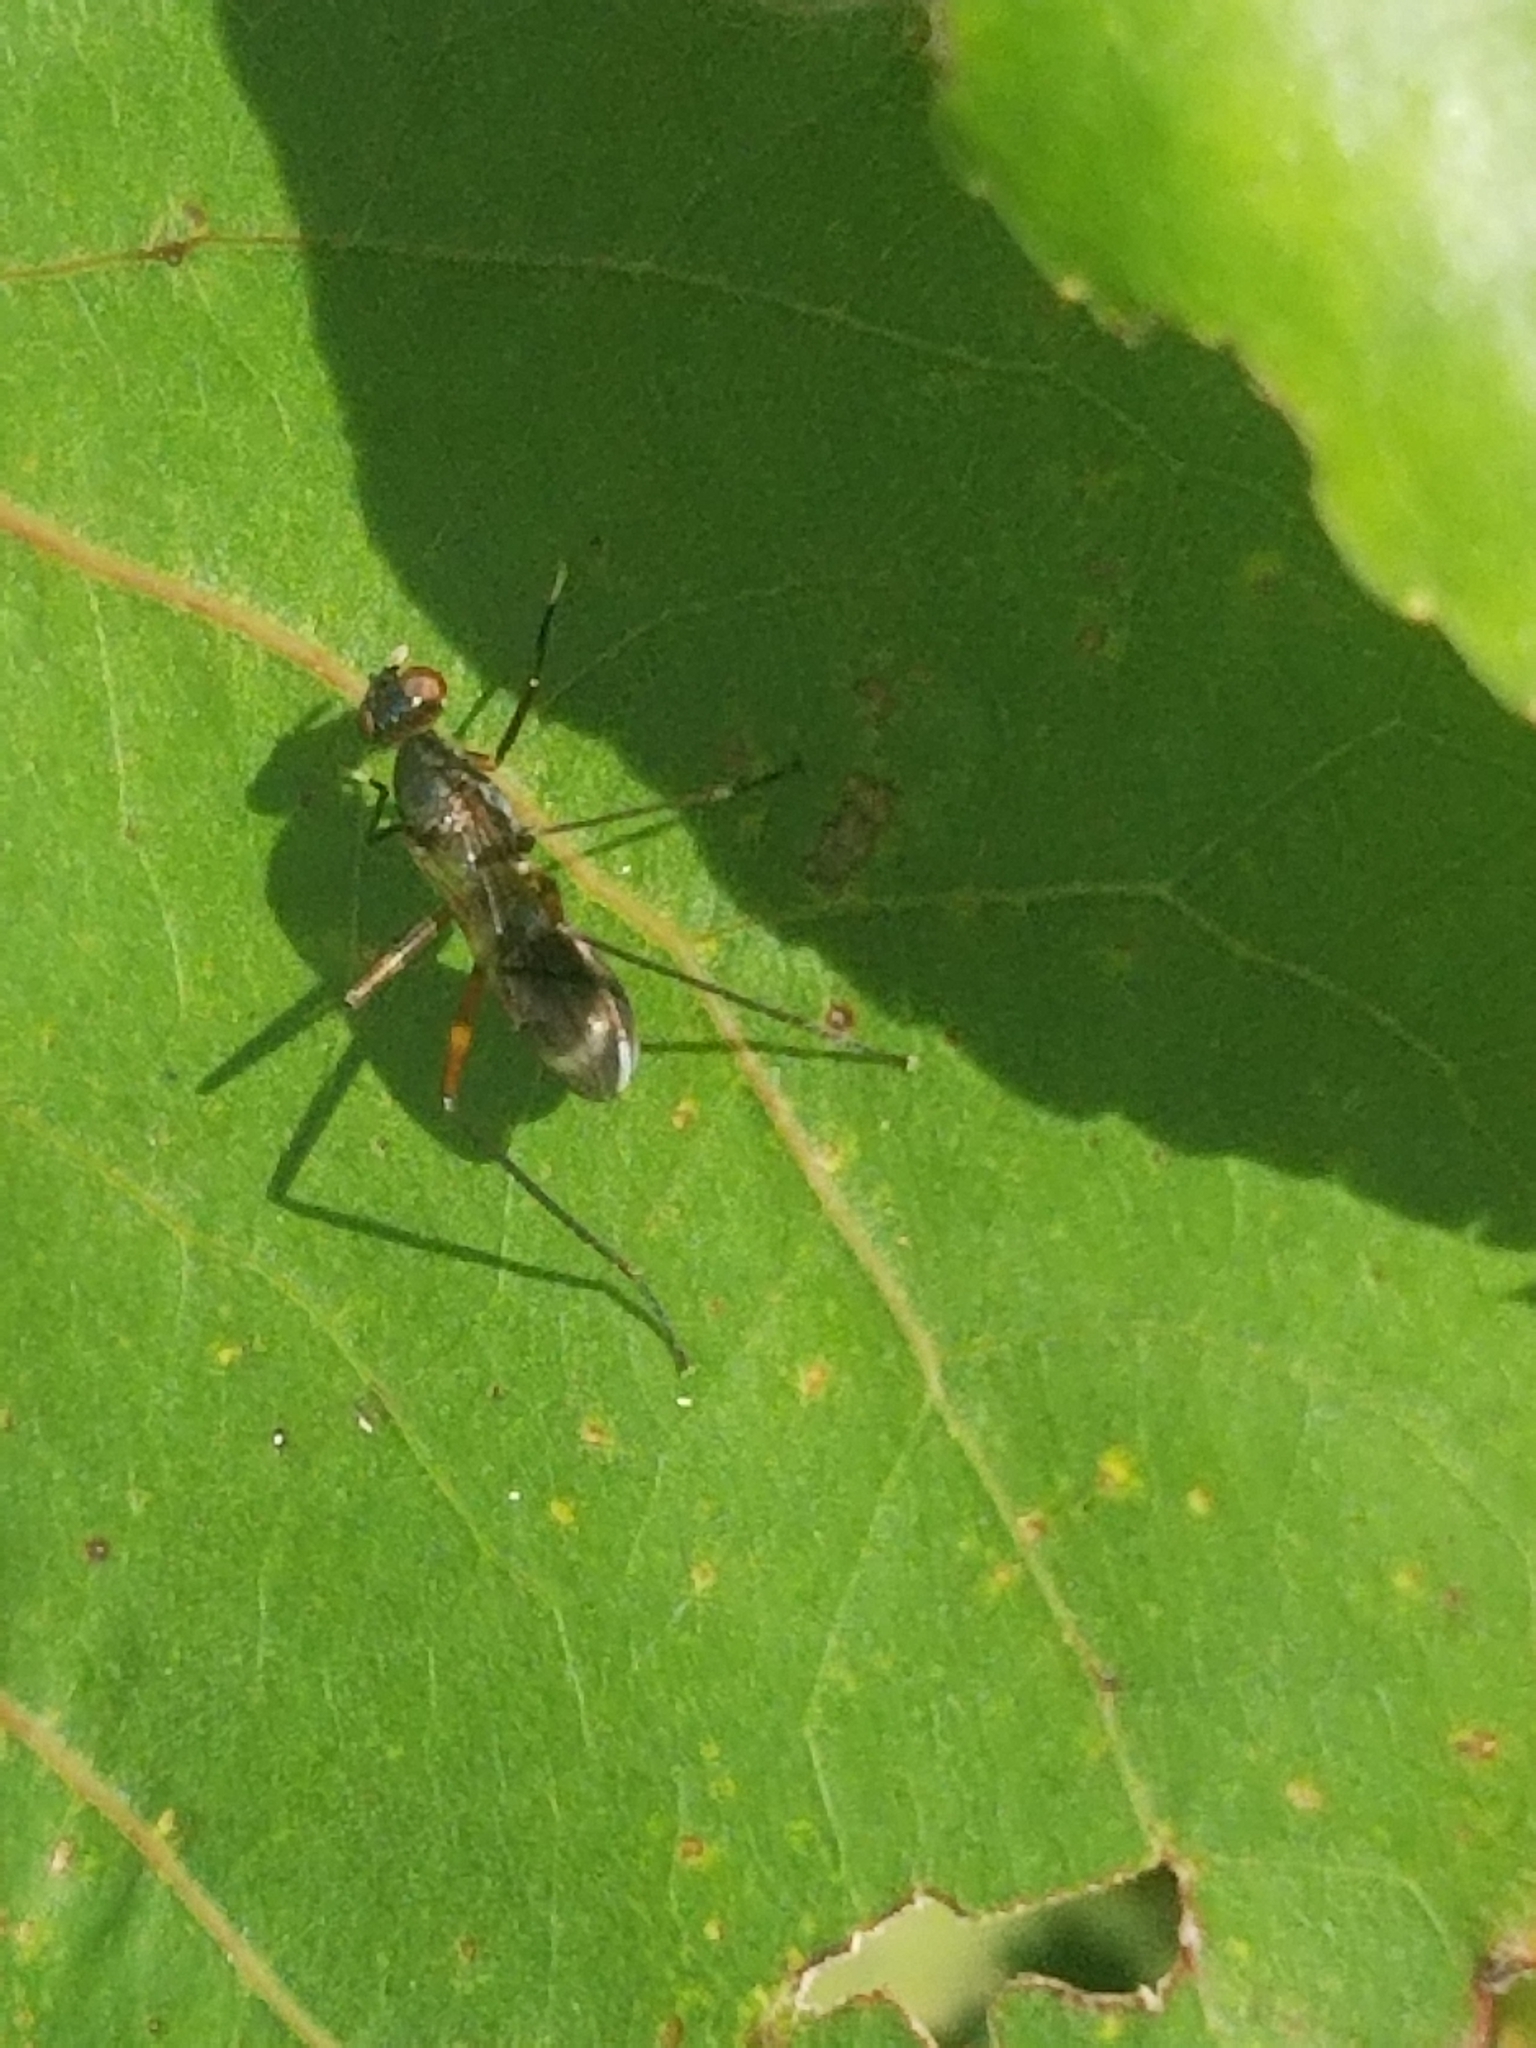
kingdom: Animalia
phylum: Arthropoda
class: Insecta
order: Diptera
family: Micropezidae
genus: Taeniaptera
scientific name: Taeniaptera trivittata
